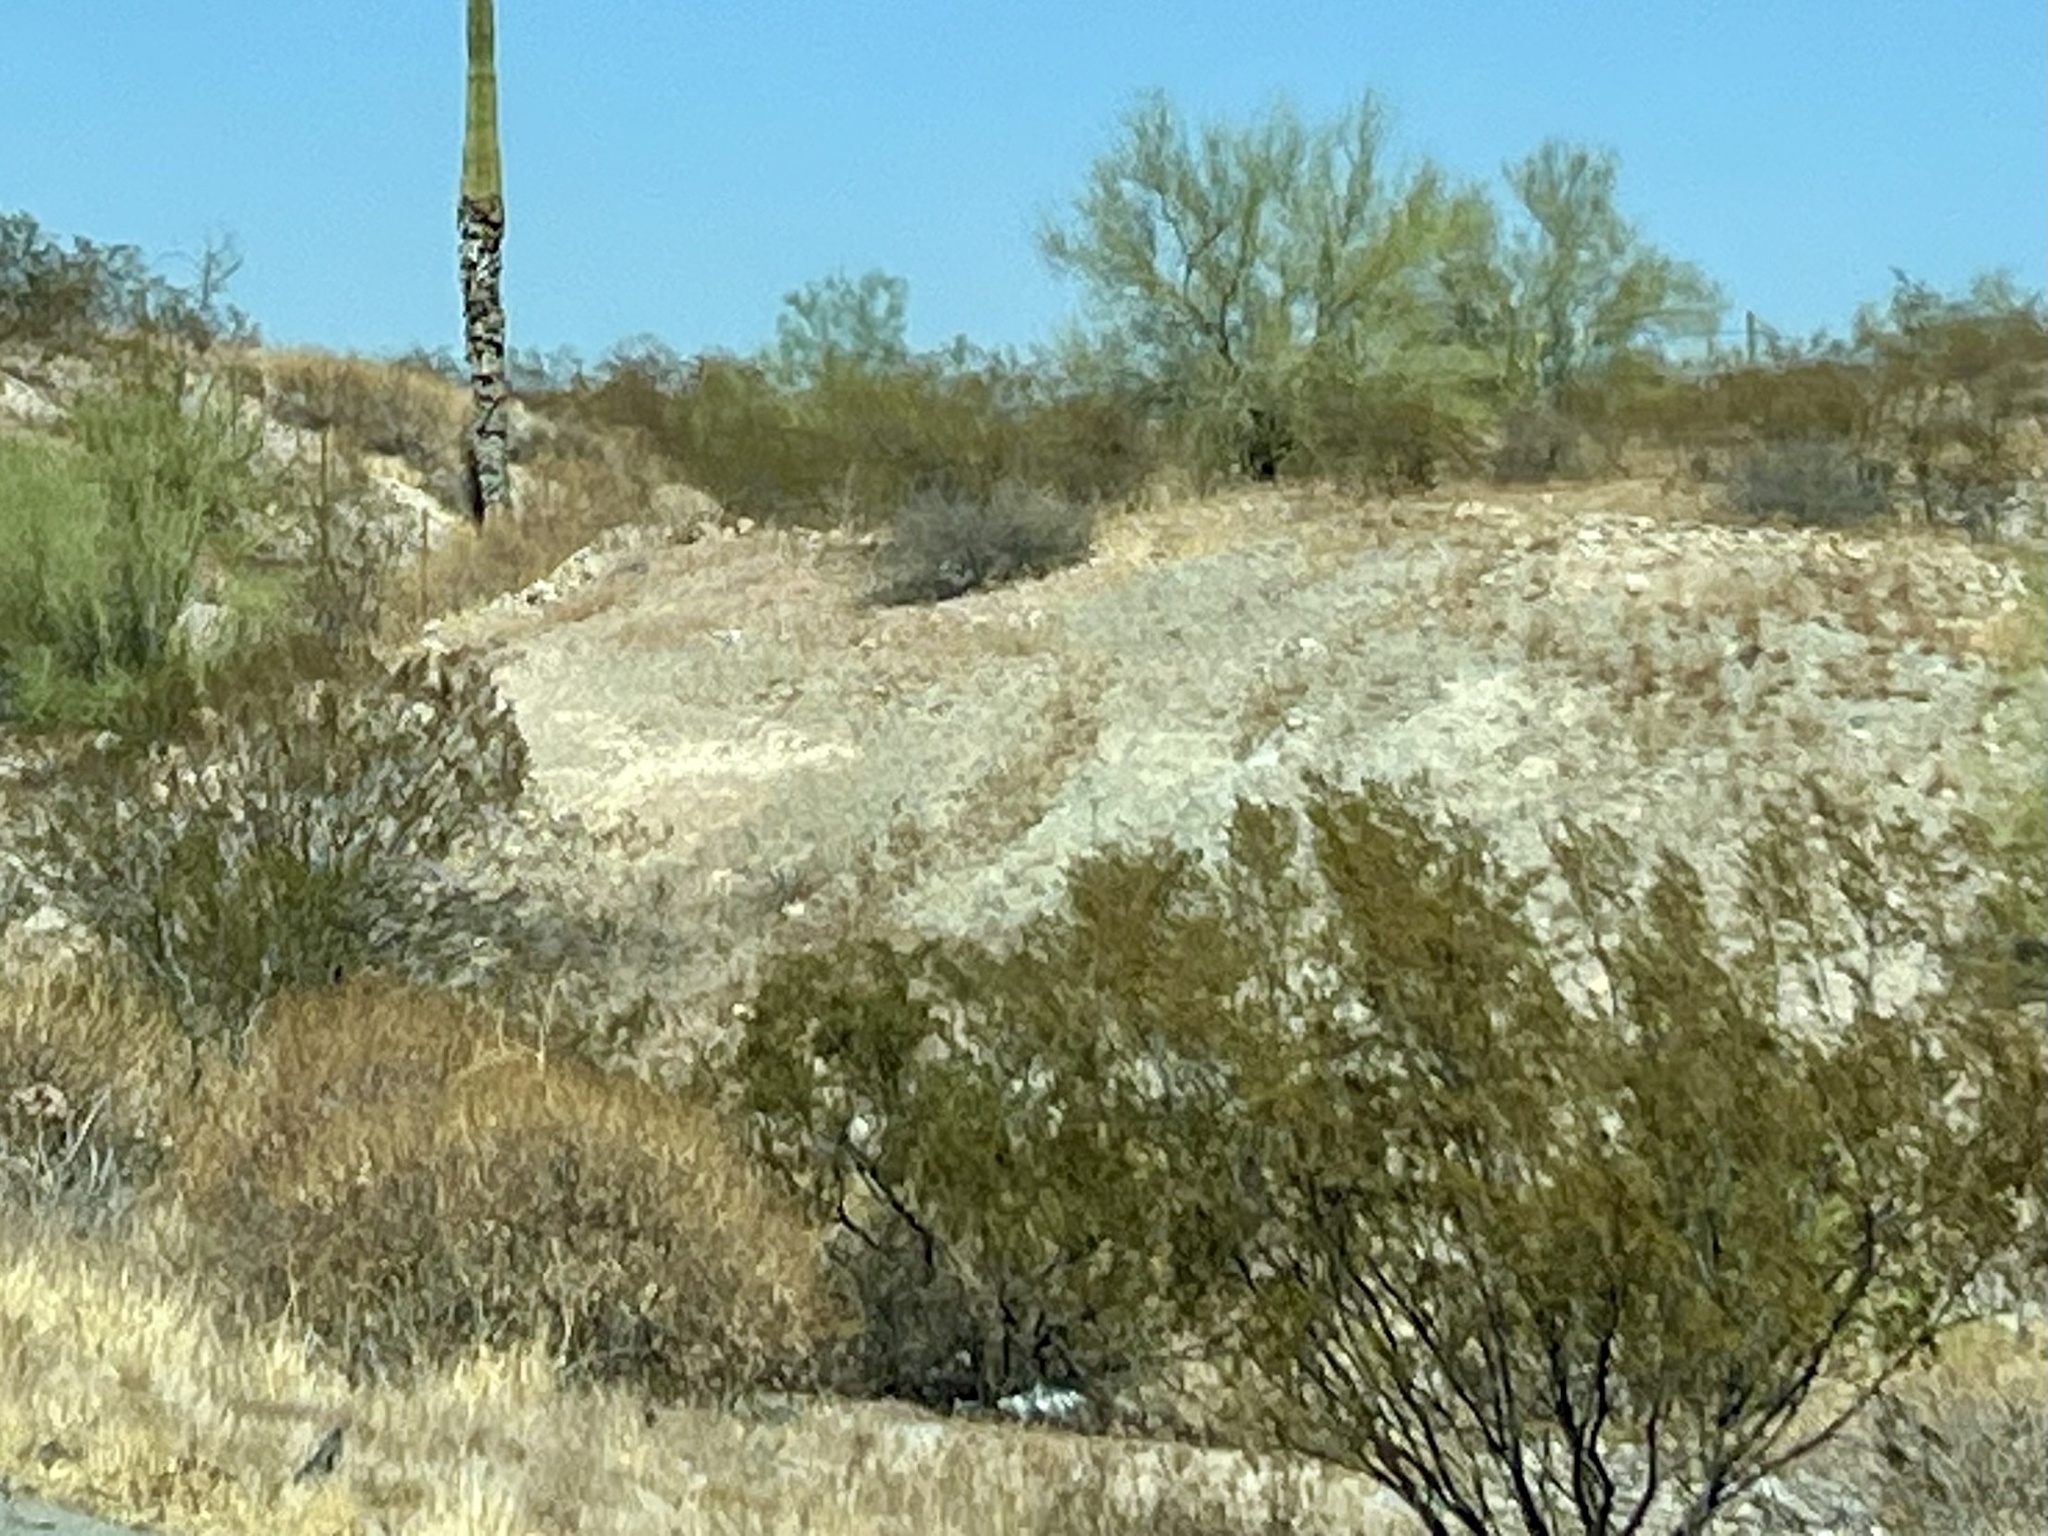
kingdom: Plantae
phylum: Tracheophyta
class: Magnoliopsida
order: Zygophyllales
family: Zygophyllaceae
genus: Larrea
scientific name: Larrea tridentata
